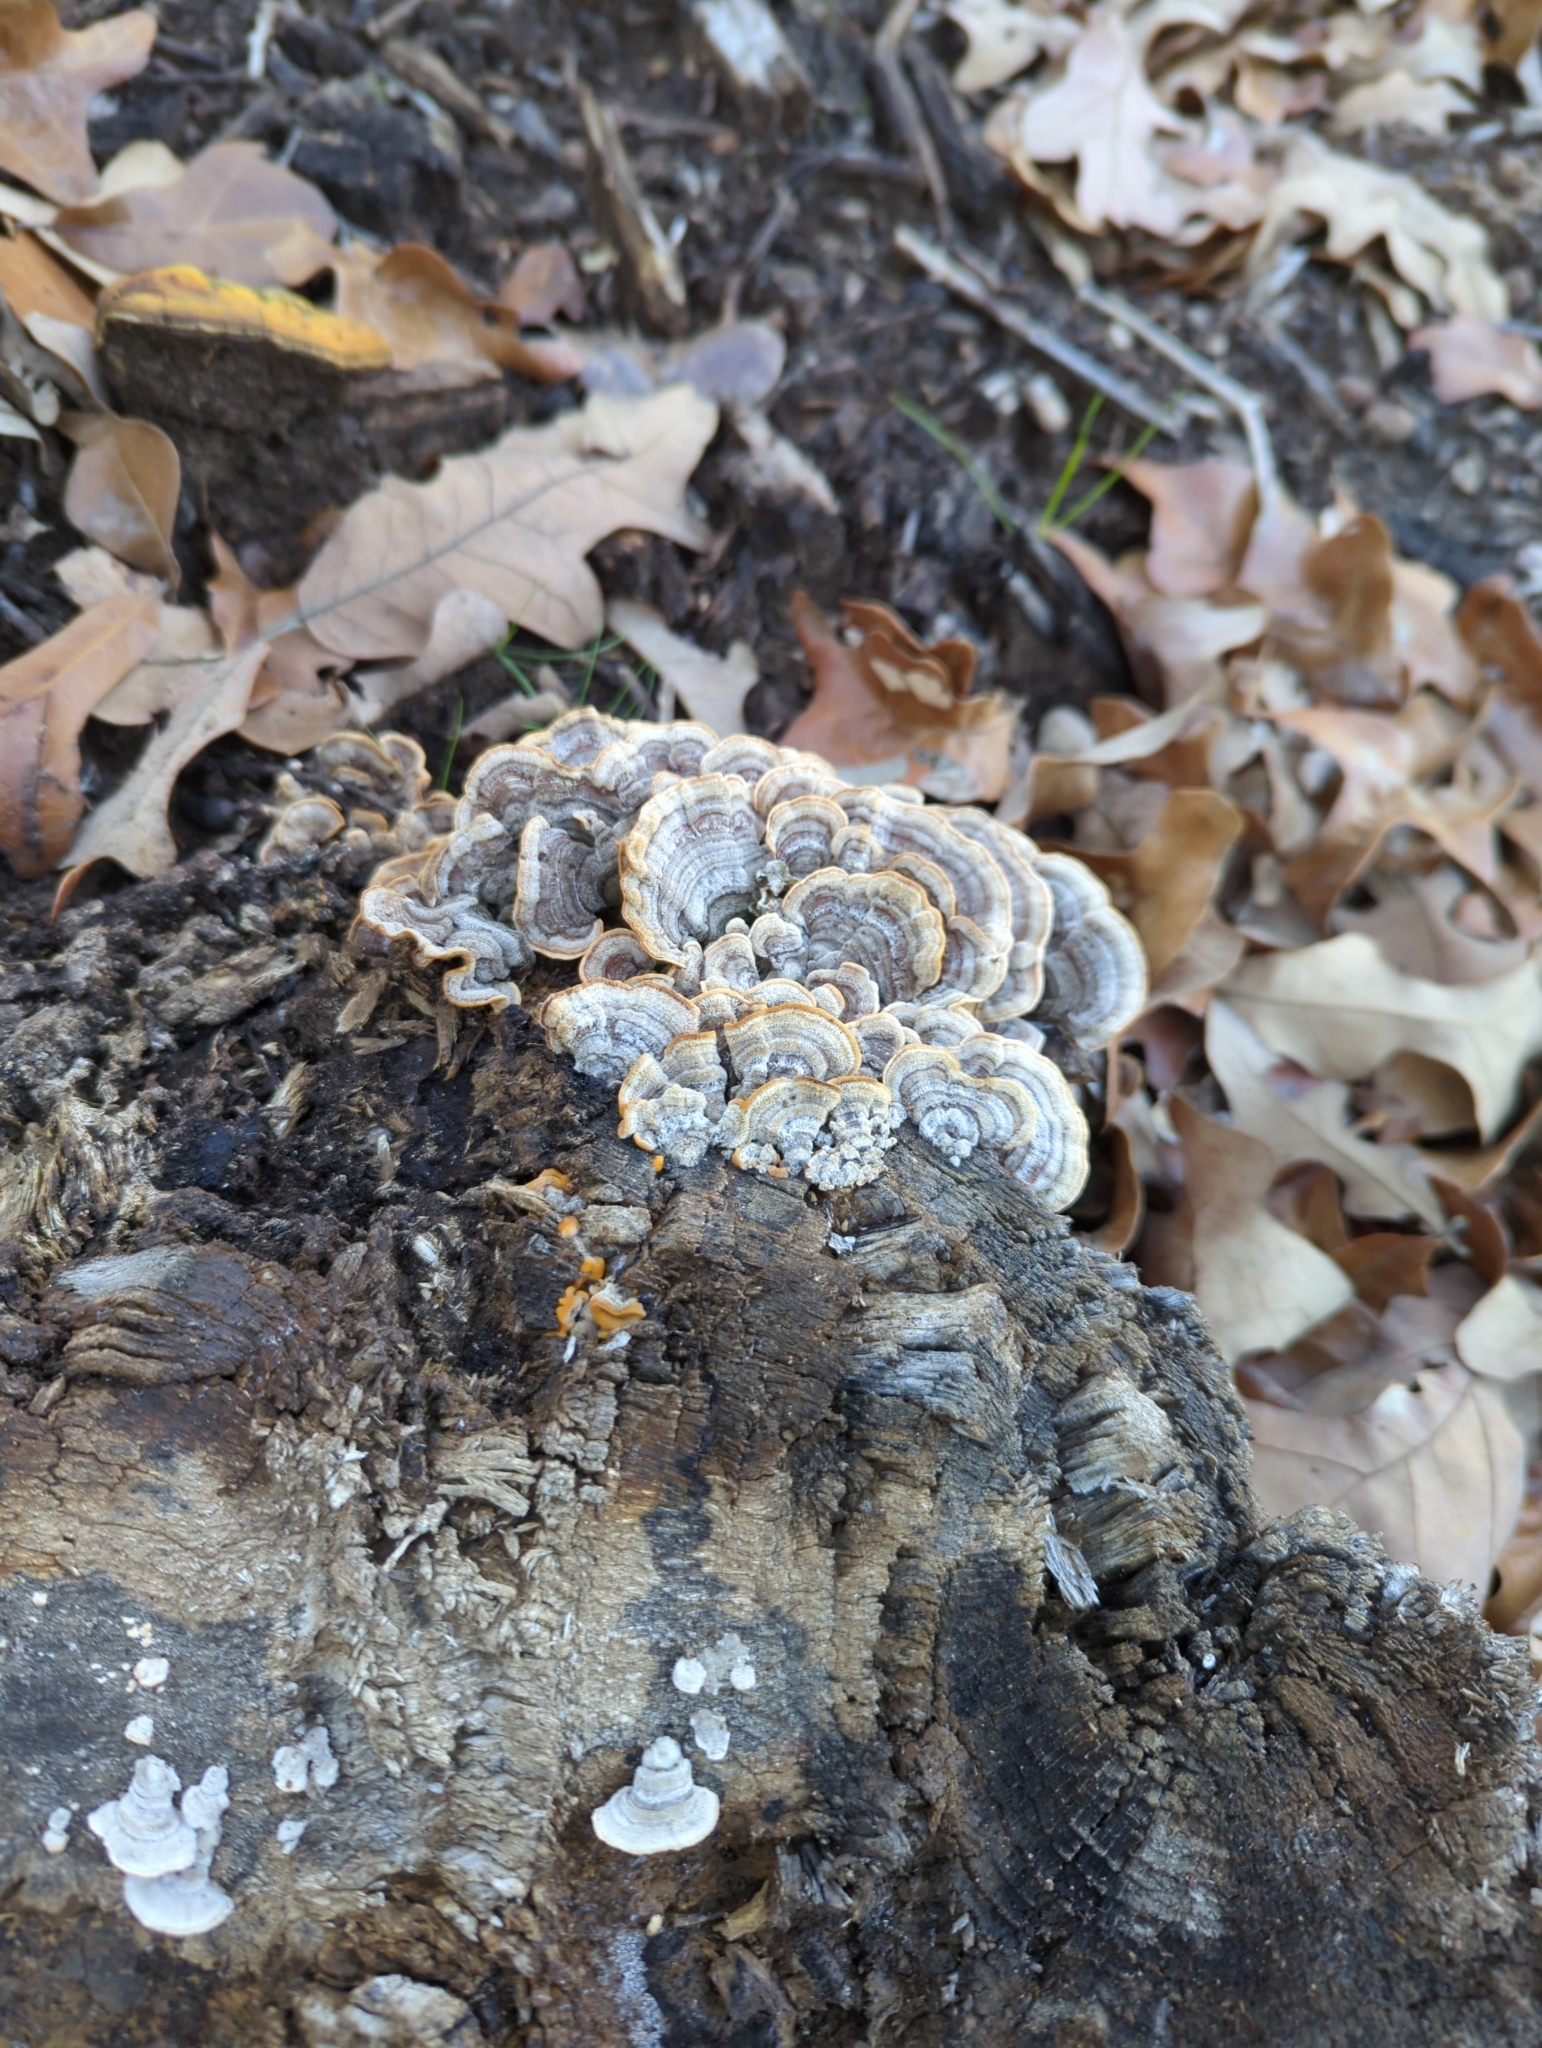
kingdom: Fungi
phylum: Basidiomycota
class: Agaricomycetes
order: Polyporales
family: Polyporaceae
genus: Trametes
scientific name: Trametes versicolor
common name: Turkeytail
